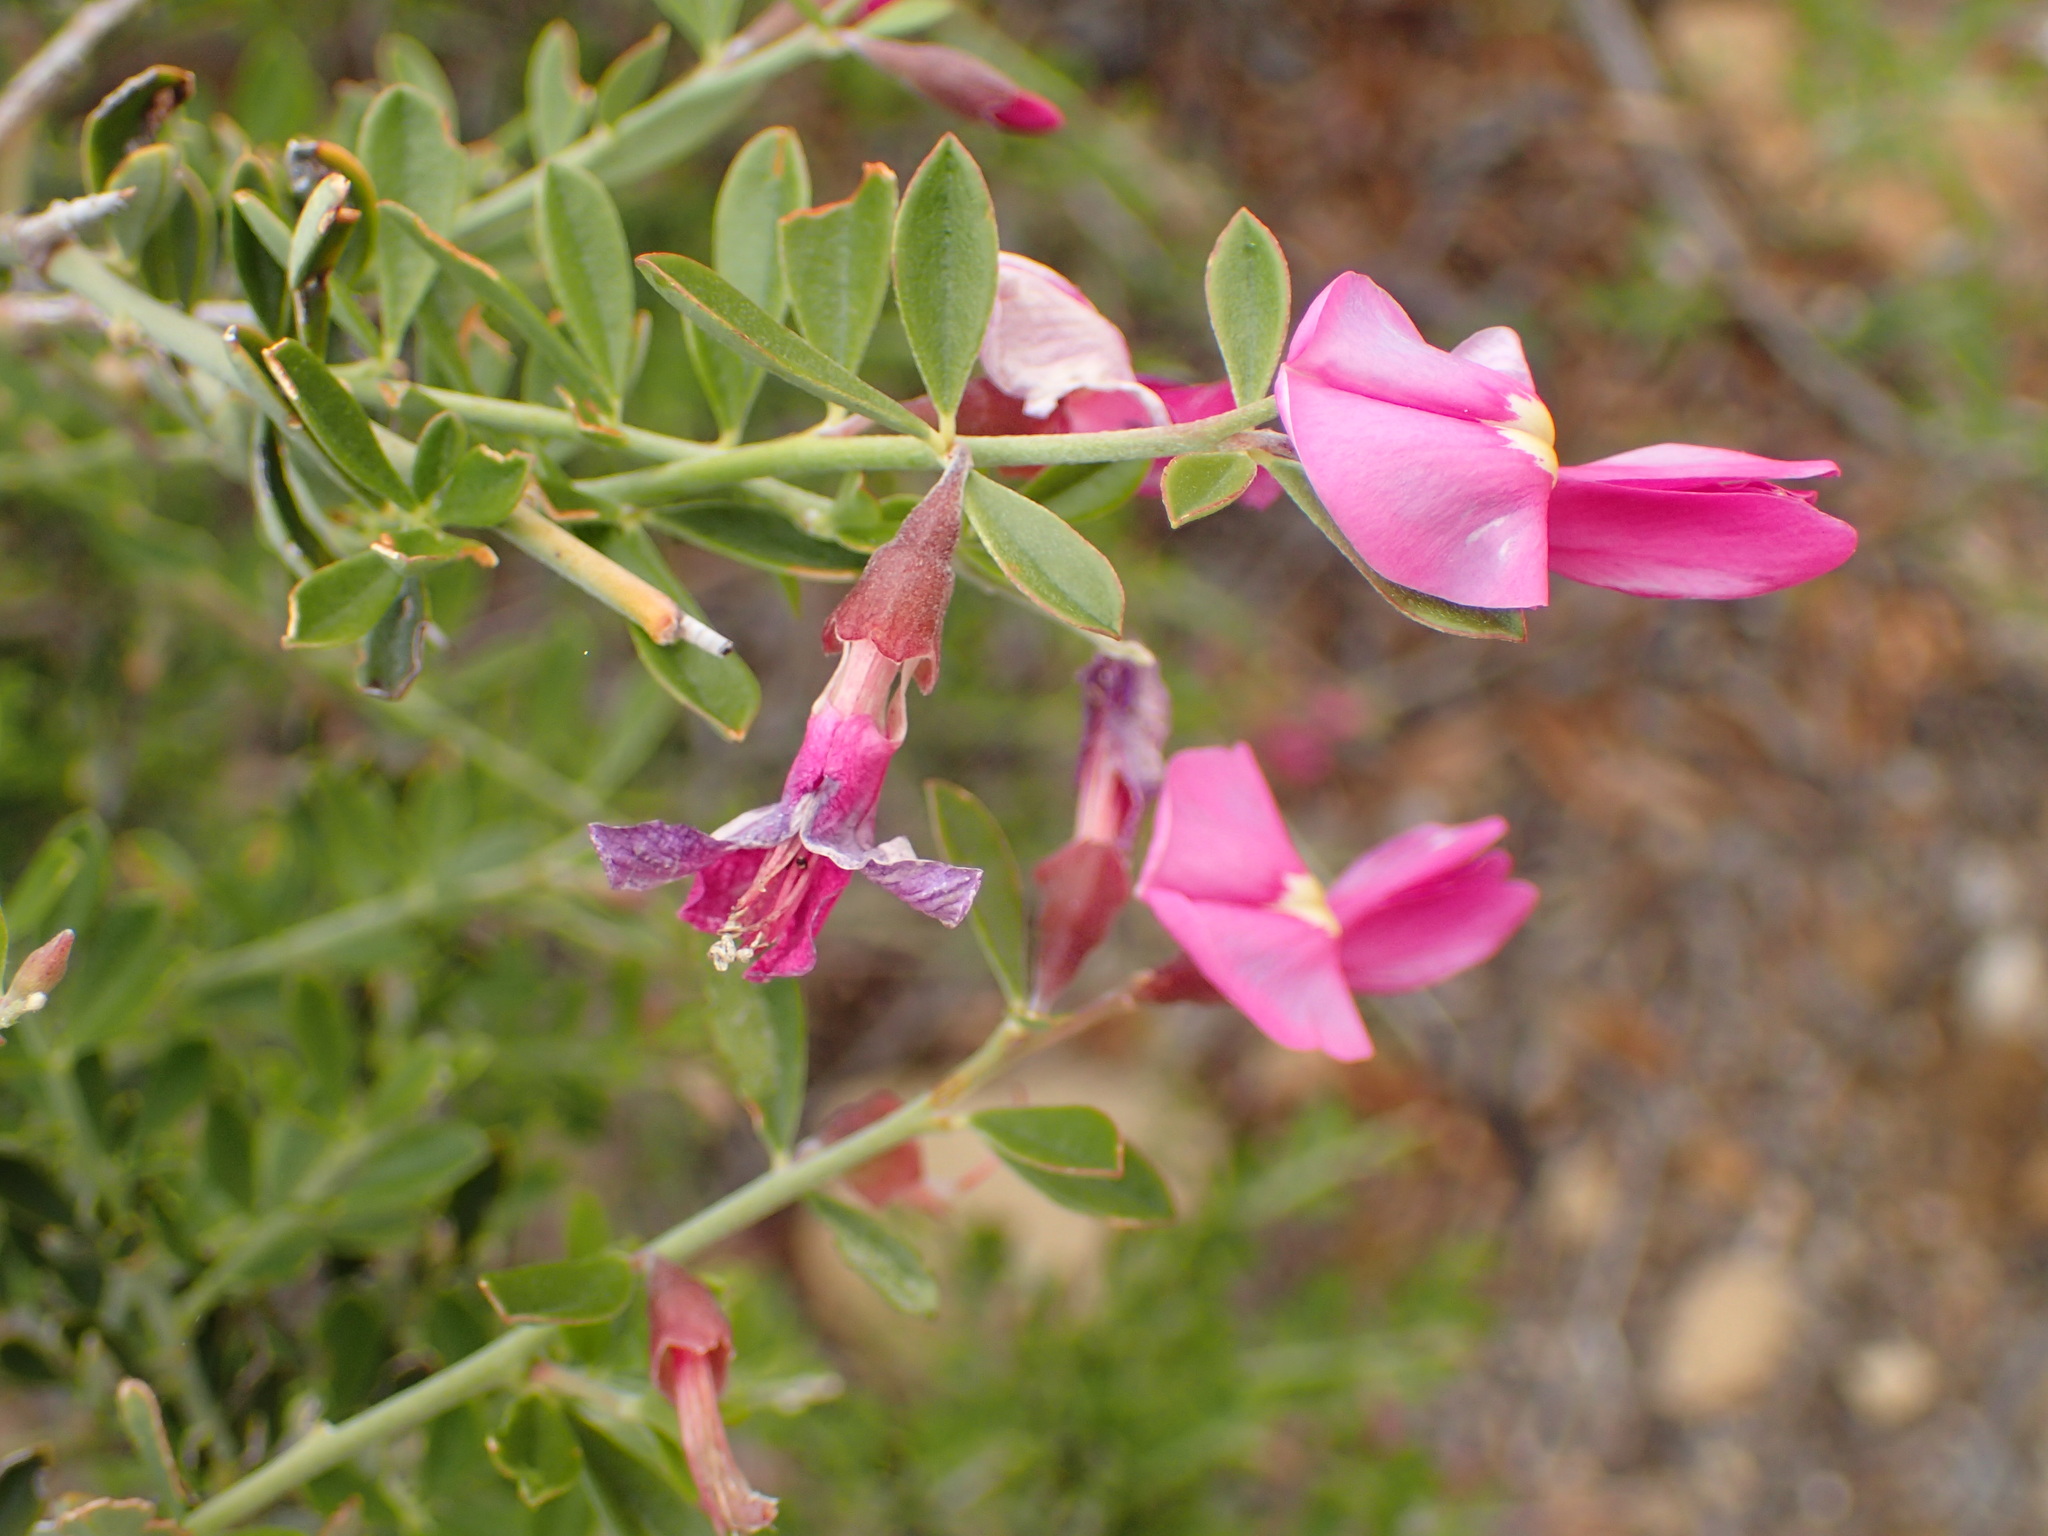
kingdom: Plantae
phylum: Tracheophyta
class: Magnoliopsida
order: Fabales
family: Fabaceae
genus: Pickeringia
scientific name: Pickeringia montana
